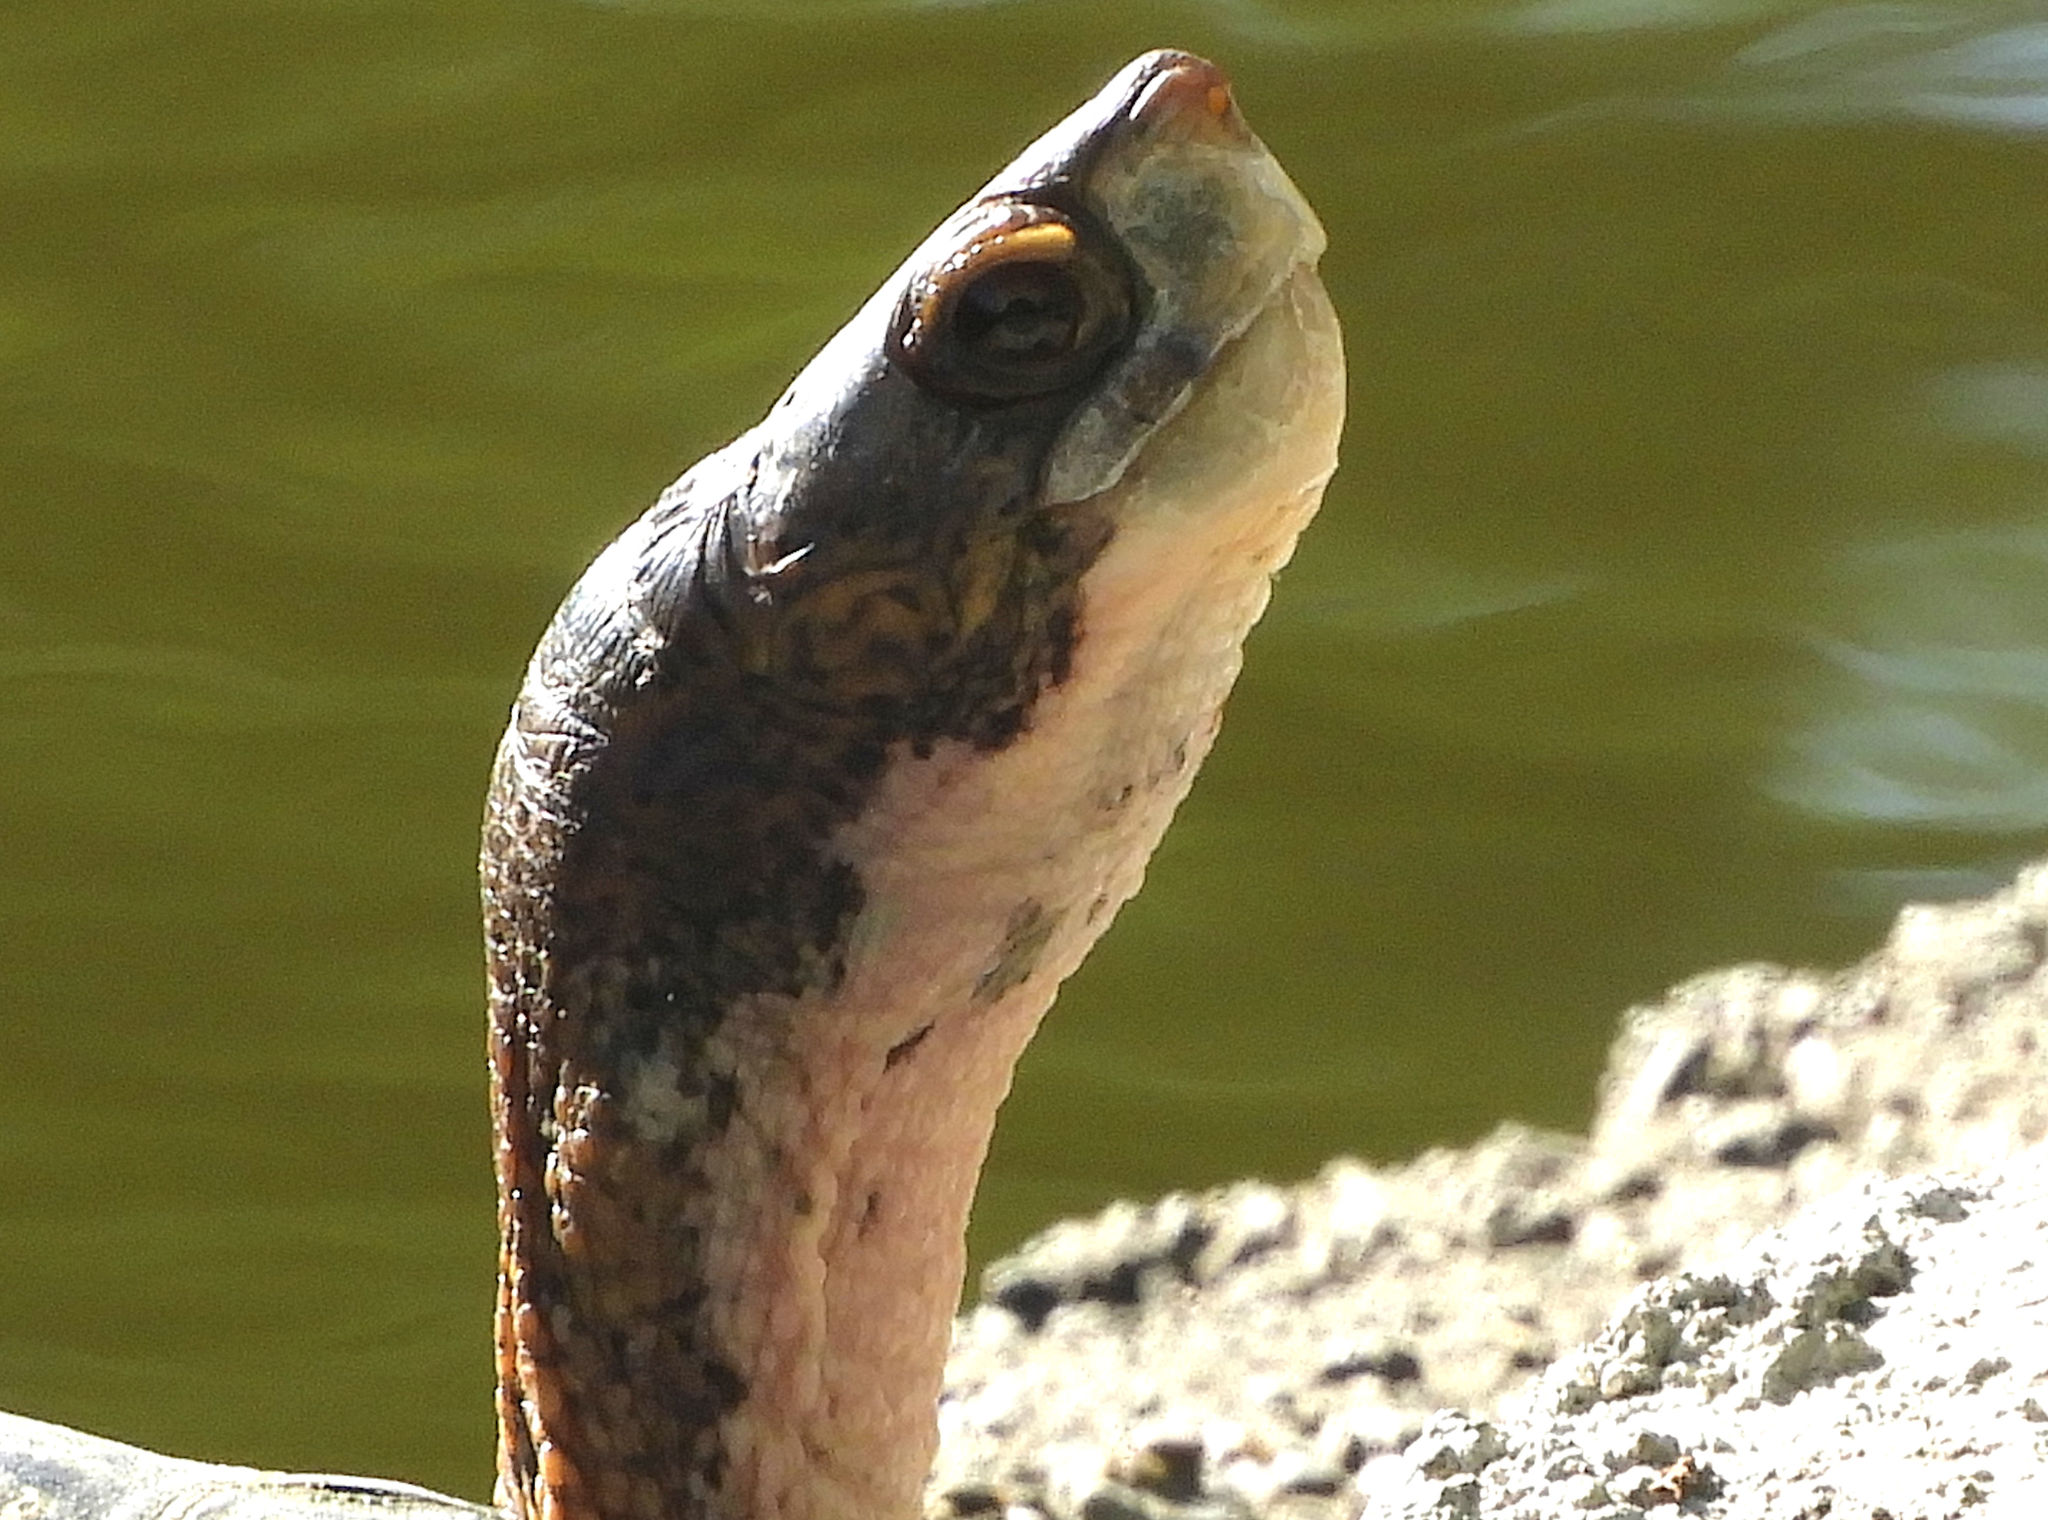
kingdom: Animalia
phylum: Chordata
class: Testudines
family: Emydidae
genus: Actinemys
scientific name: Actinemys marmorata
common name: Western pond turtle
